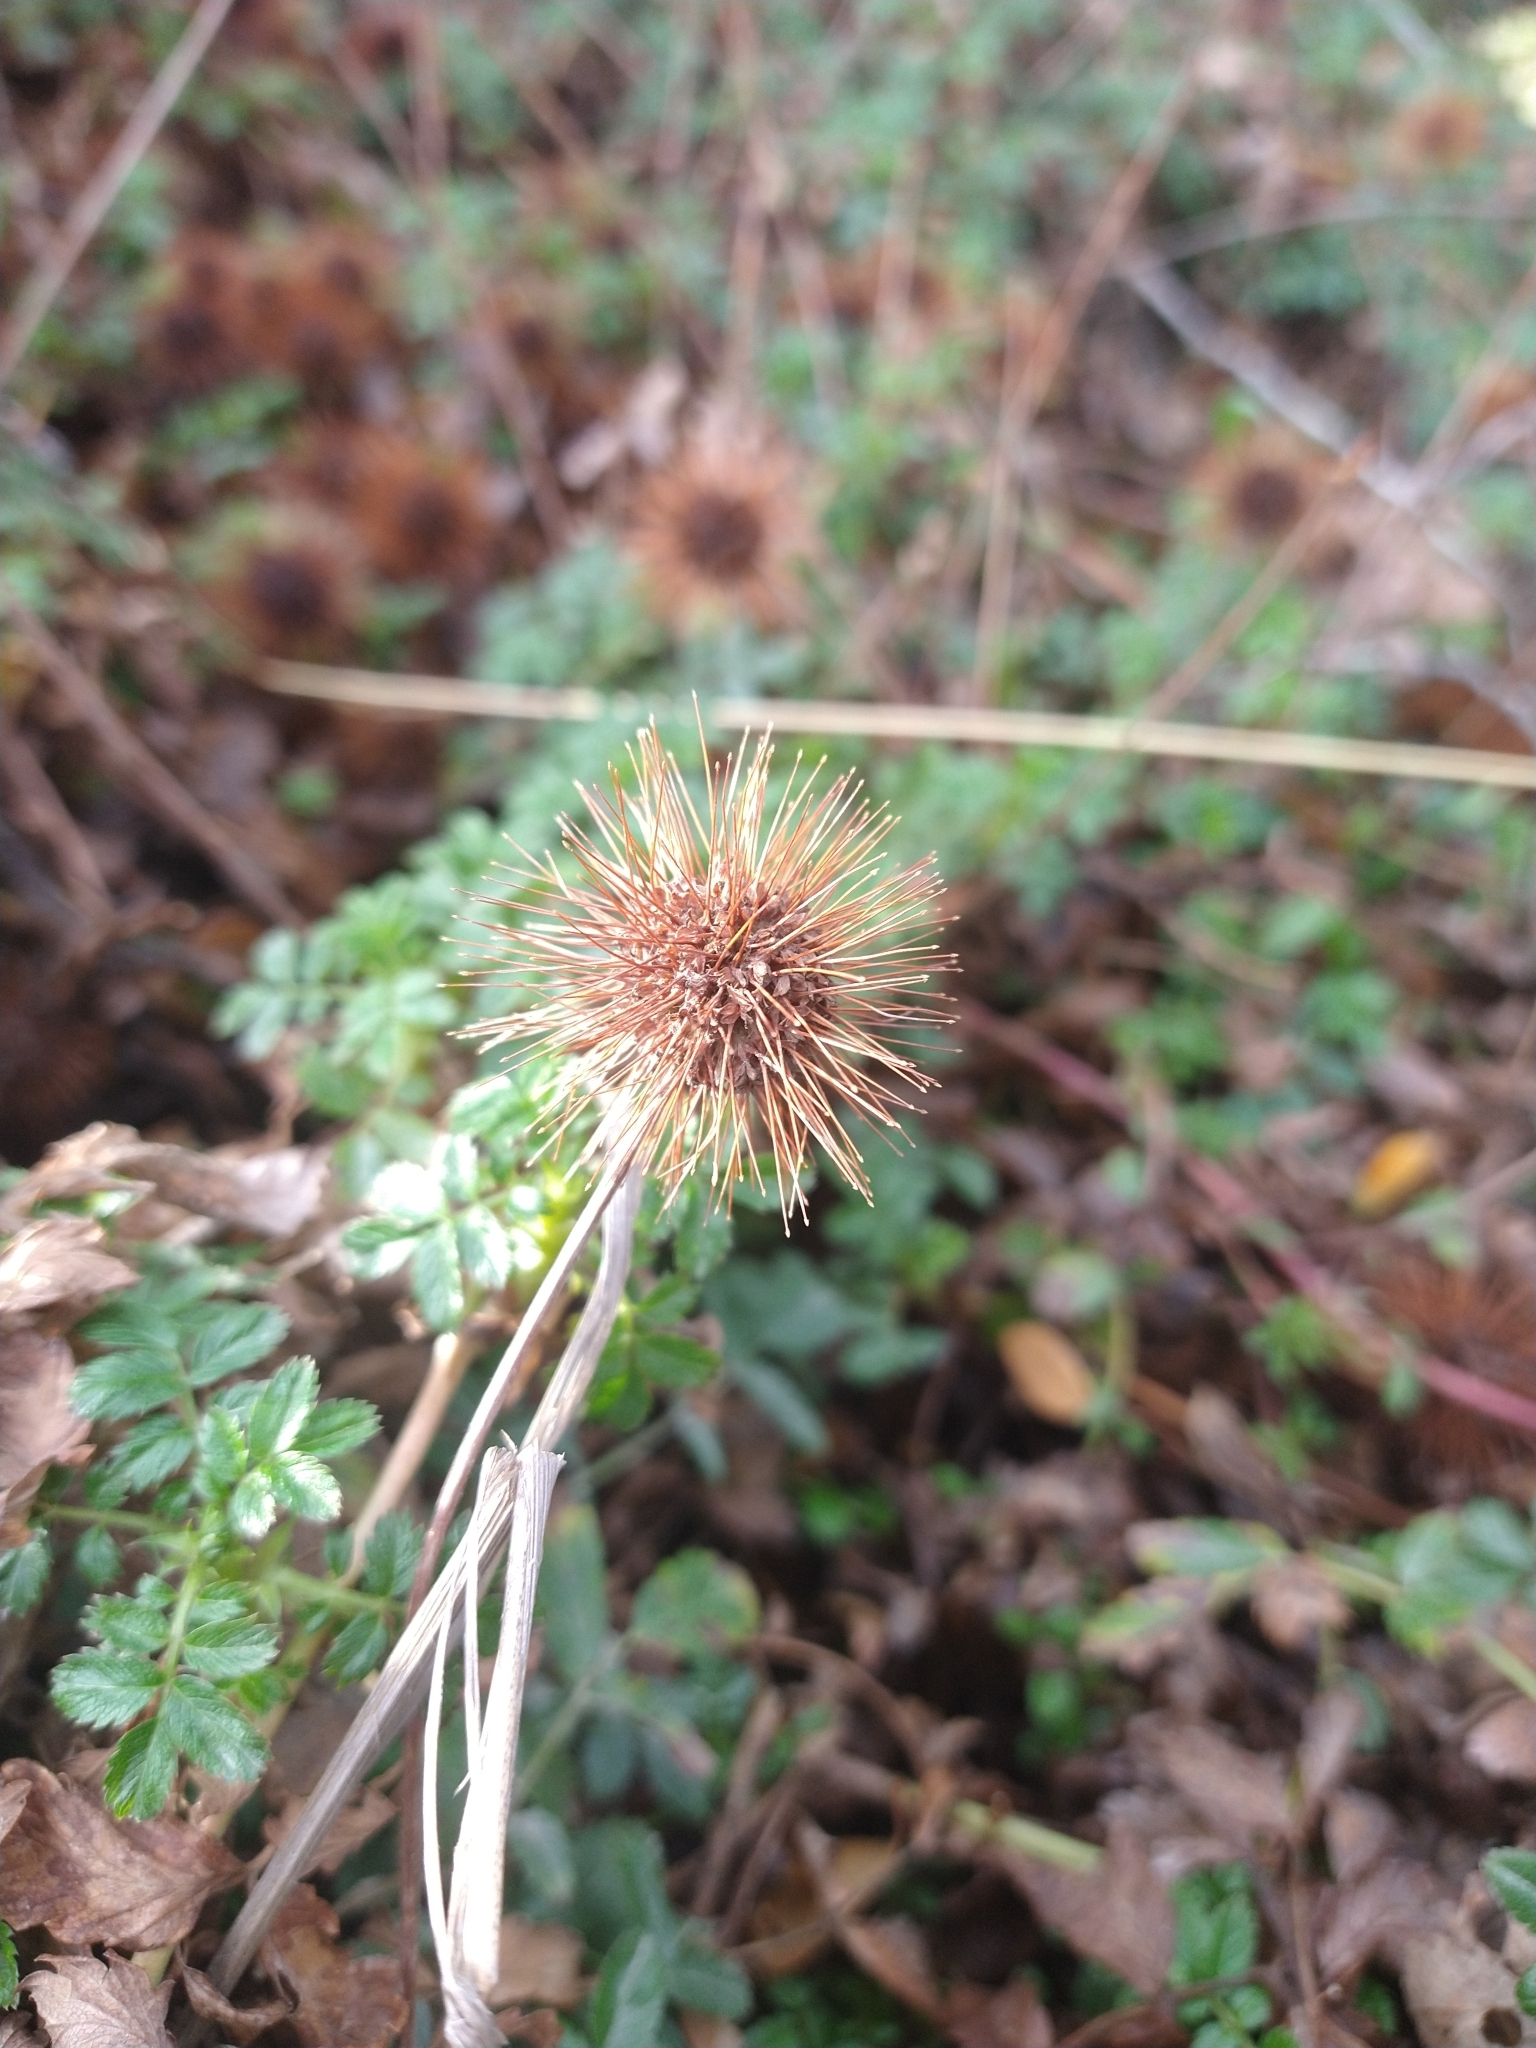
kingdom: Plantae
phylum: Tracheophyta
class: Magnoliopsida
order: Rosales
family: Rosaceae
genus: Acaena
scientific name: Acaena magellanica
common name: New zealand burr
